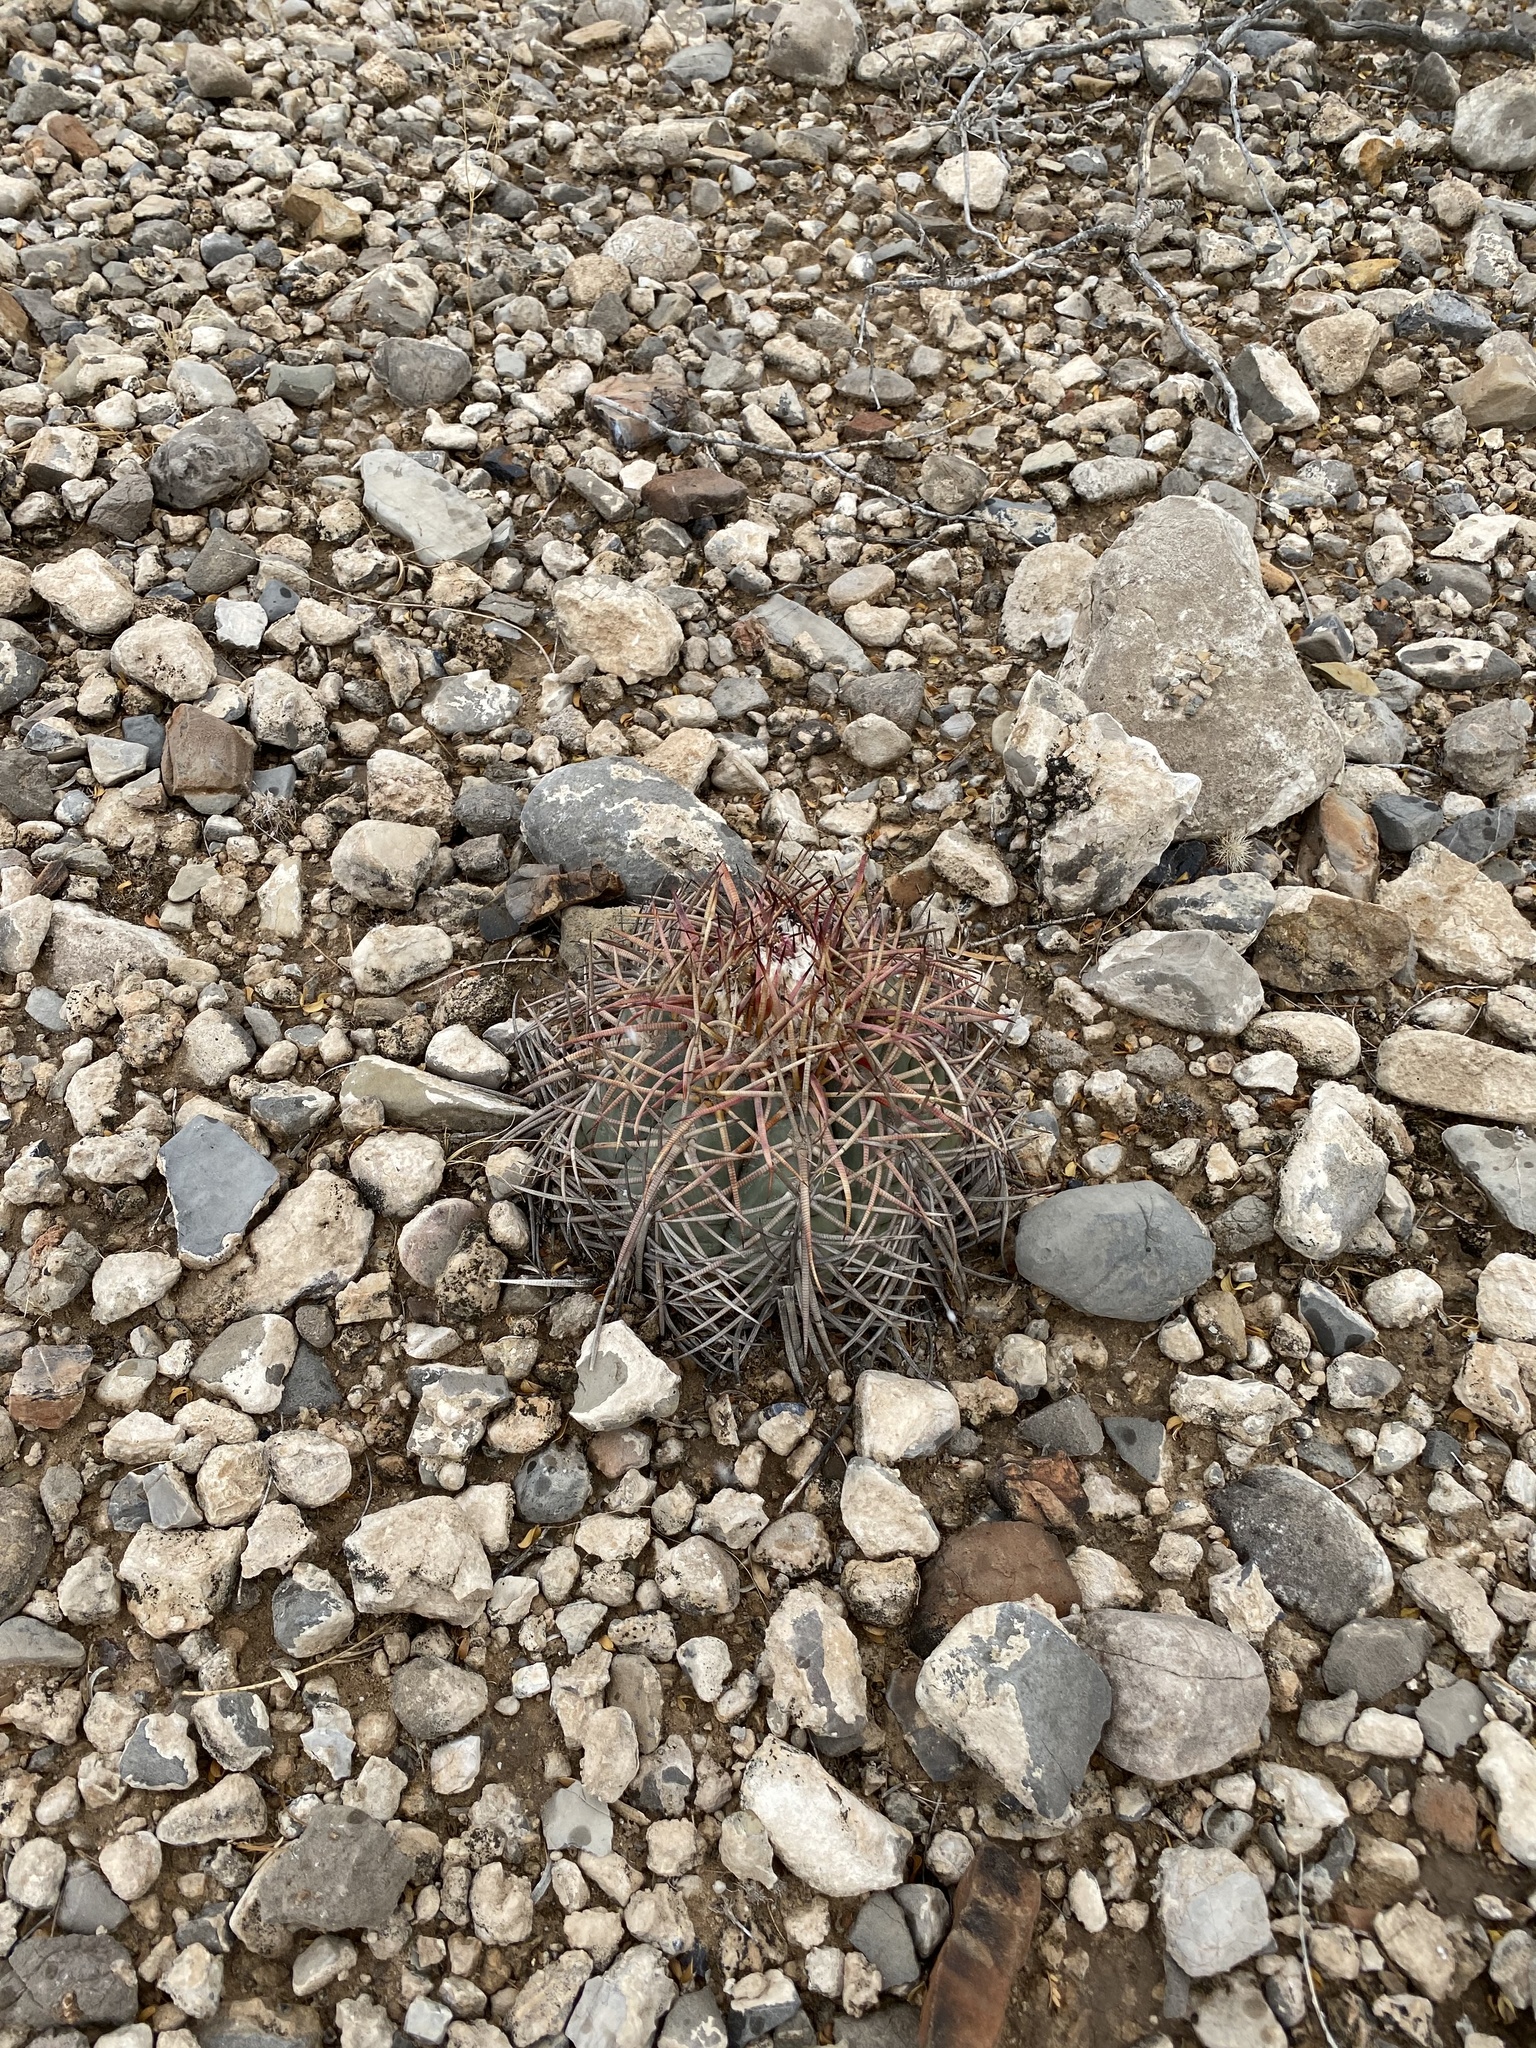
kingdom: Plantae
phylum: Tracheophyta
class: Magnoliopsida
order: Caryophyllales
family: Cactaceae
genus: Echinocactus
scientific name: Echinocactus horizonthalonius
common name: Devilshead
